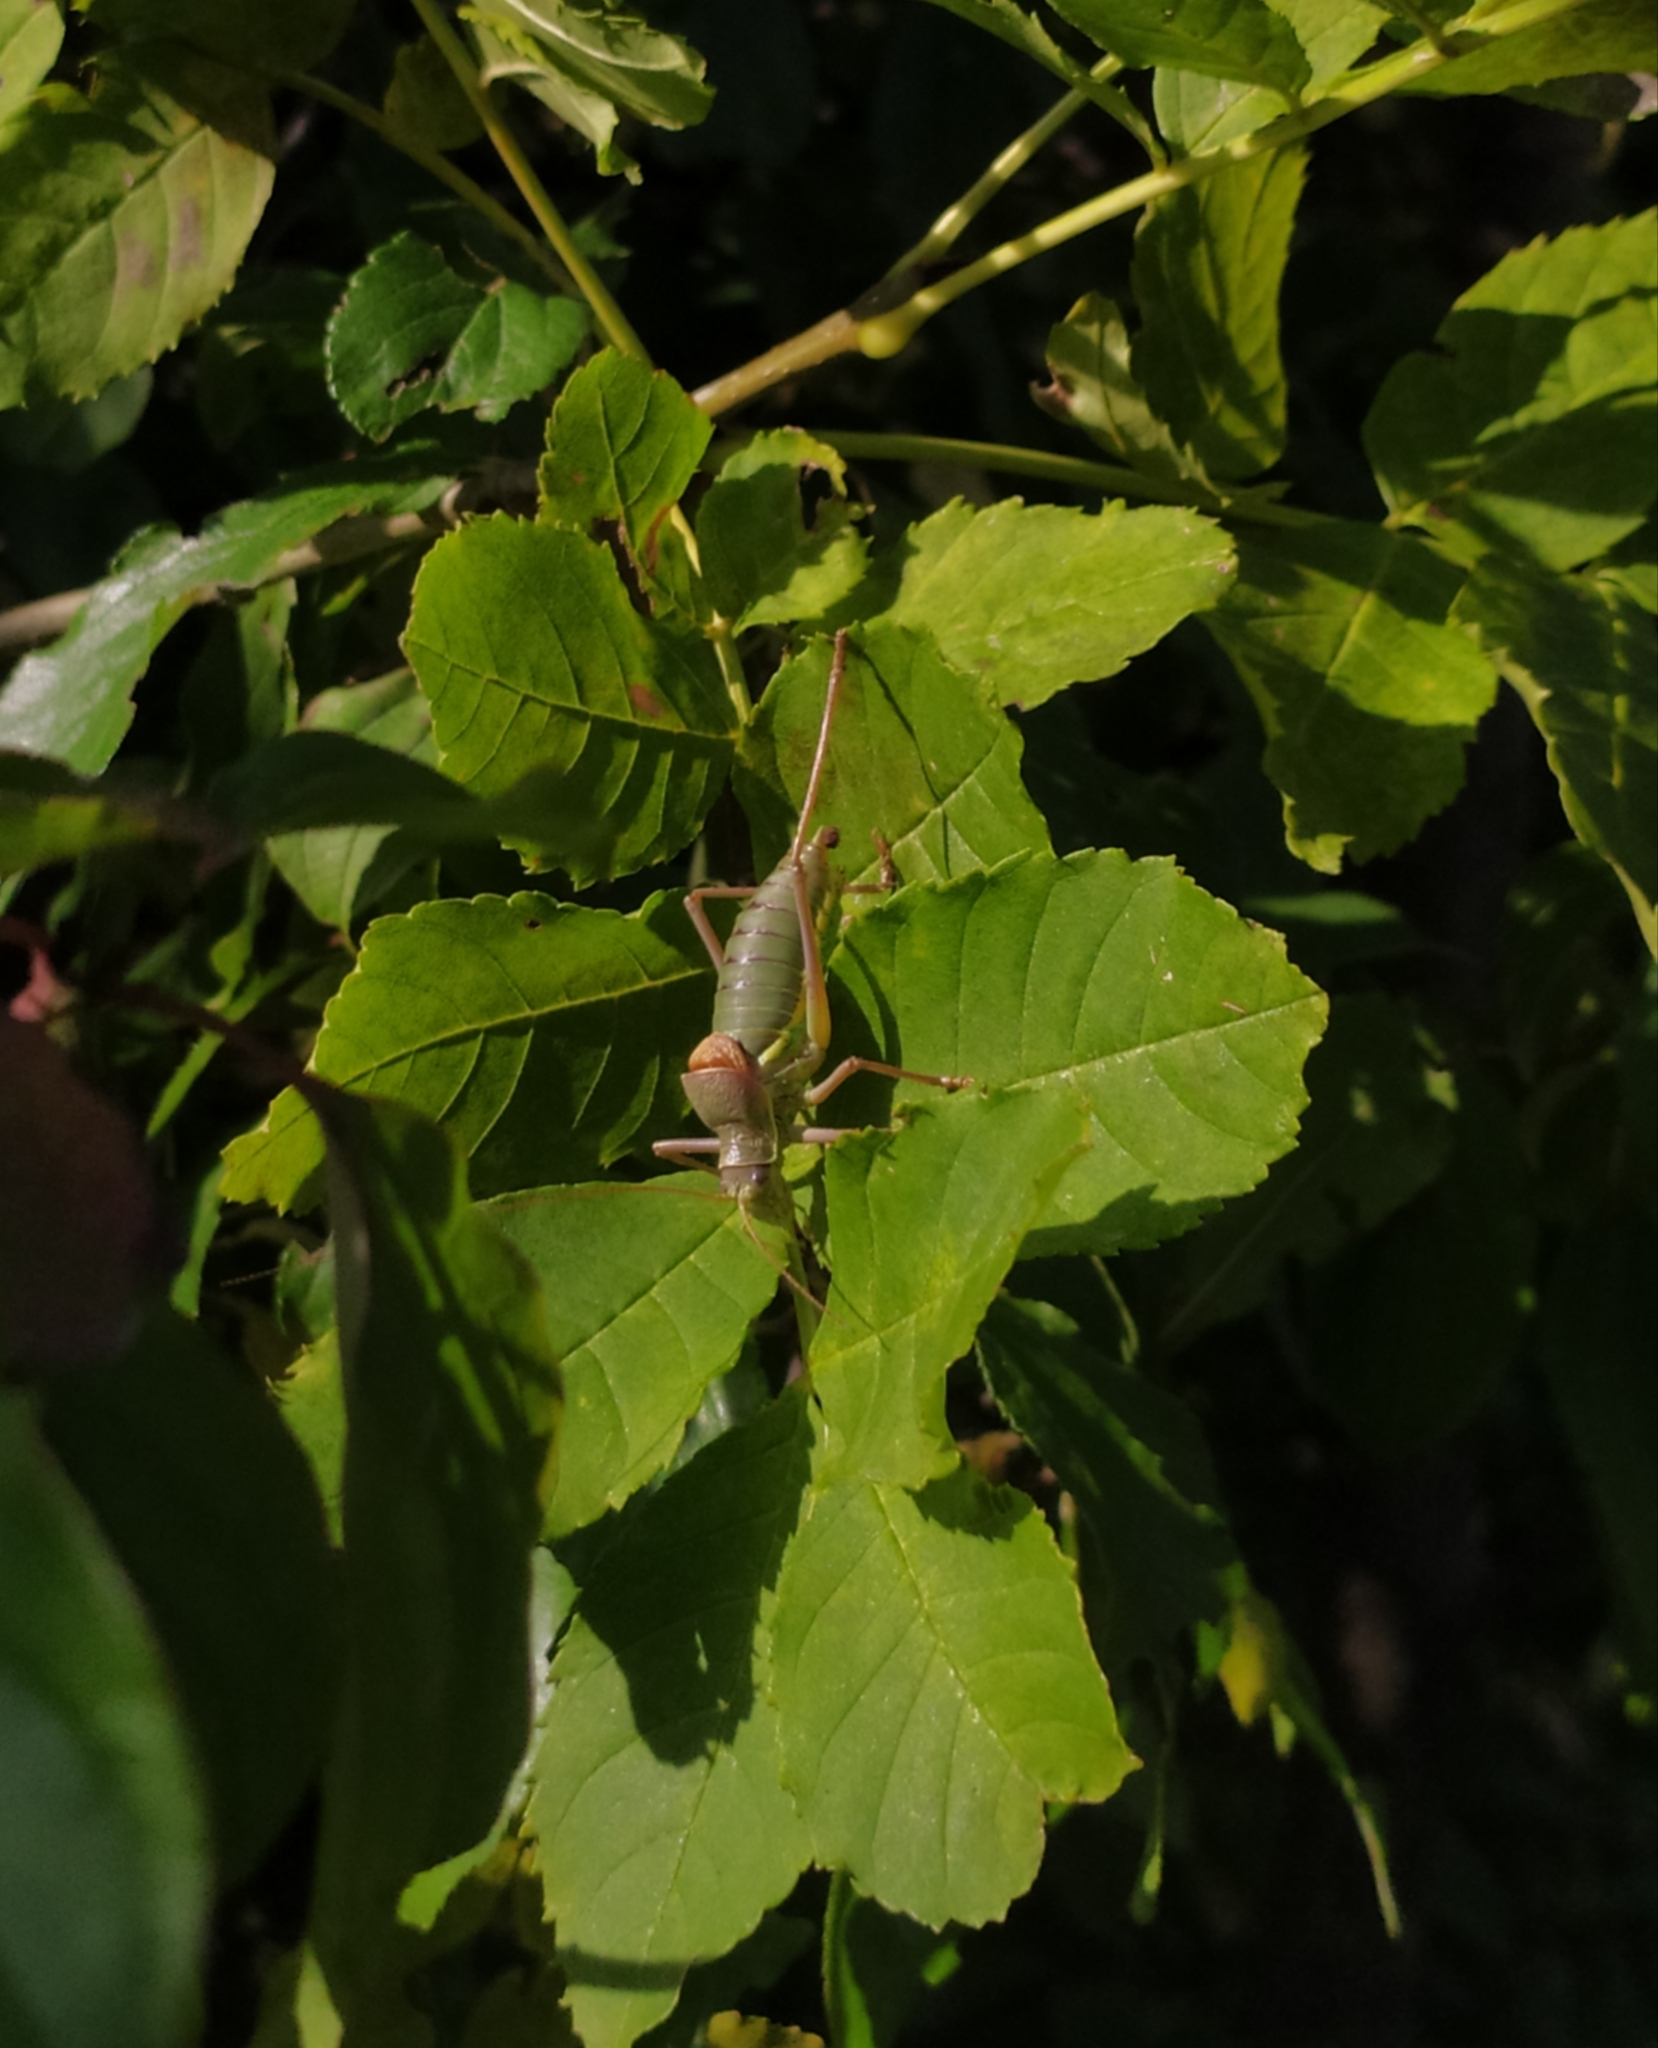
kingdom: Animalia
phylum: Arthropoda
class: Insecta
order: Orthoptera
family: Tettigoniidae
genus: Ephippiger
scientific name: Ephippiger ephippiger
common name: Eastern saddle bush-cricket
